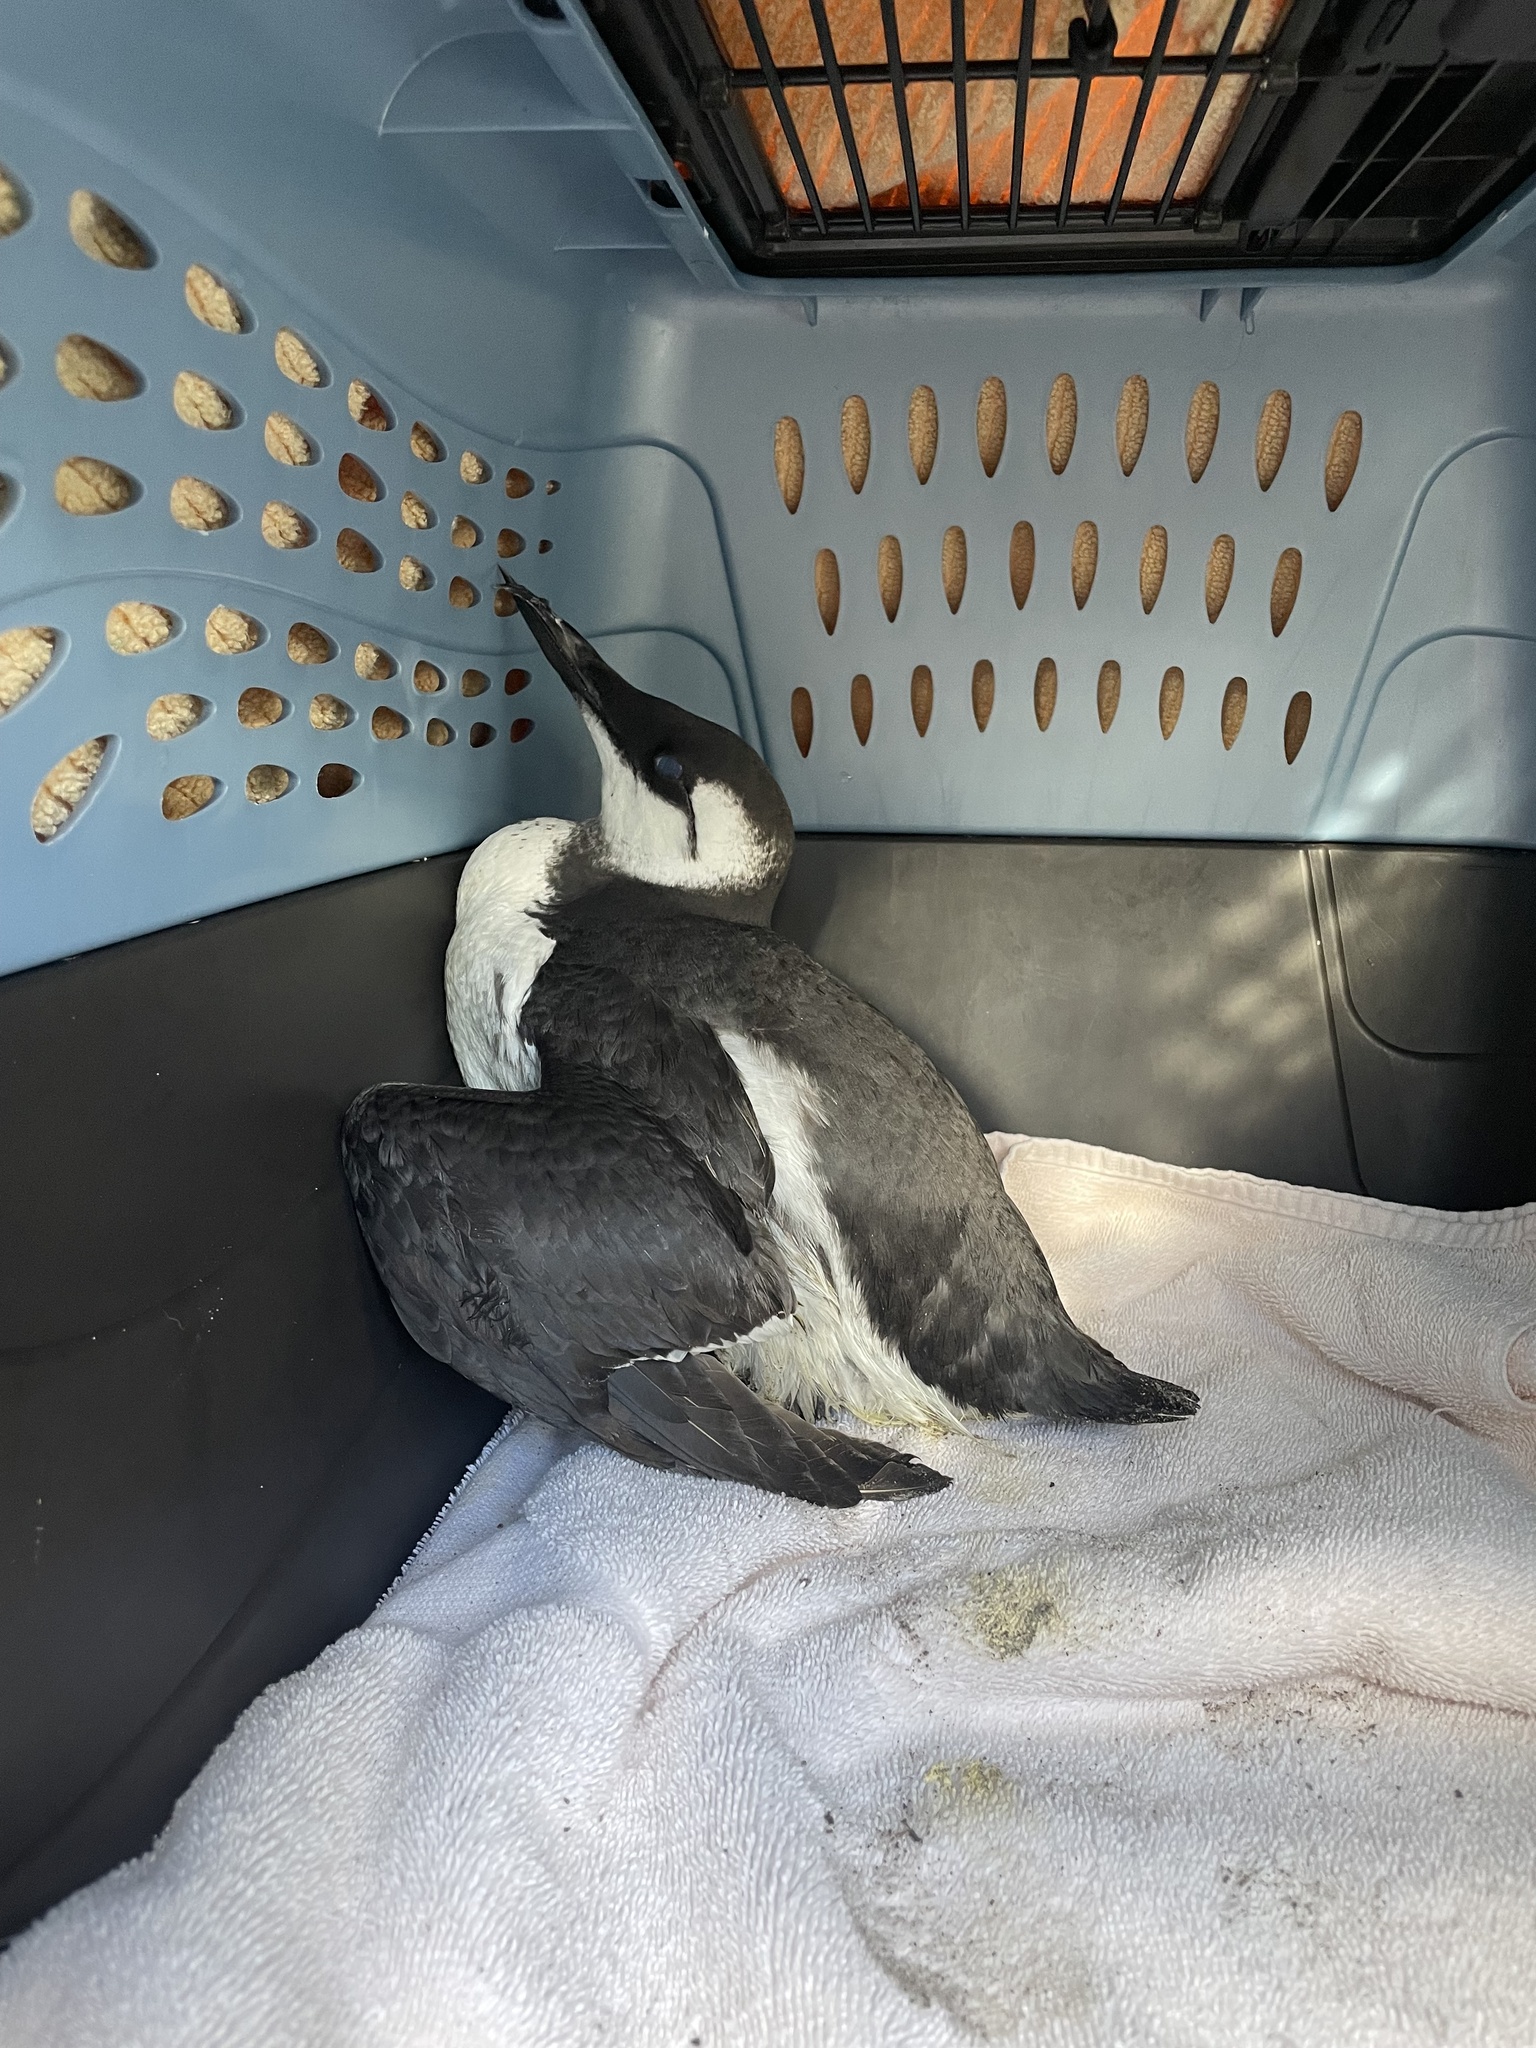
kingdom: Animalia
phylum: Chordata
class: Aves
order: Charadriiformes
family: Alcidae
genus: Uria
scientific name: Uria aalge
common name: Common murre
